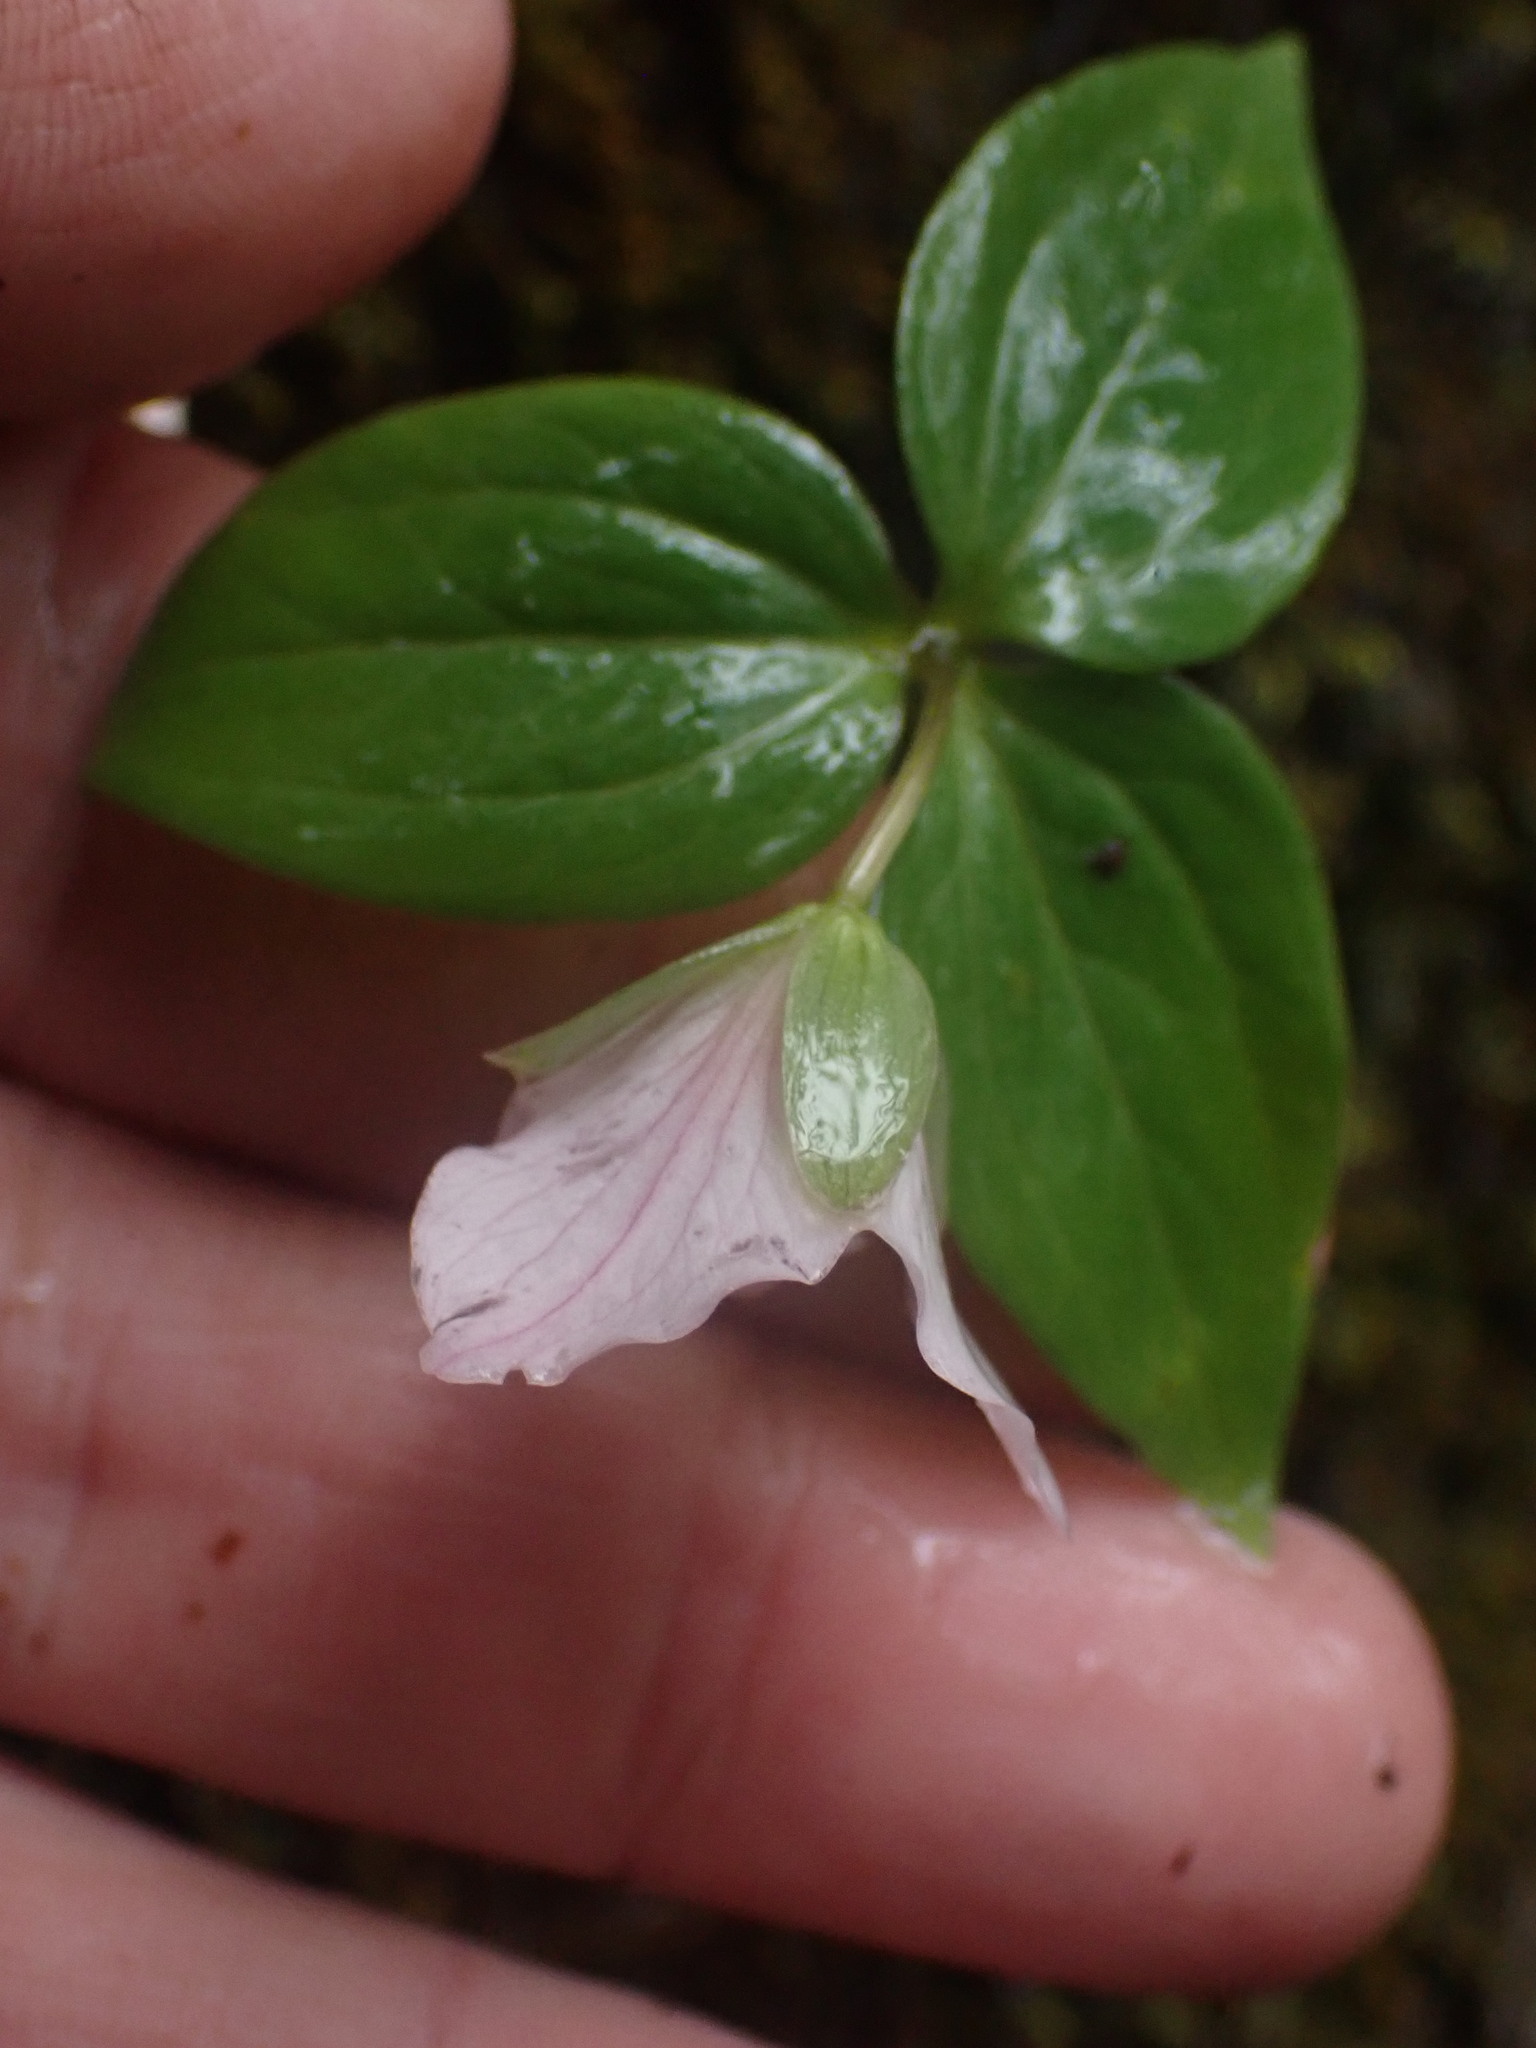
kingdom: Plantae
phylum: Tracheophyta
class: Liliopsida
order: Liliales
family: Melanthiaceae
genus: Trillium
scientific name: Trillium hibbersonii
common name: Hibberson's trillium
